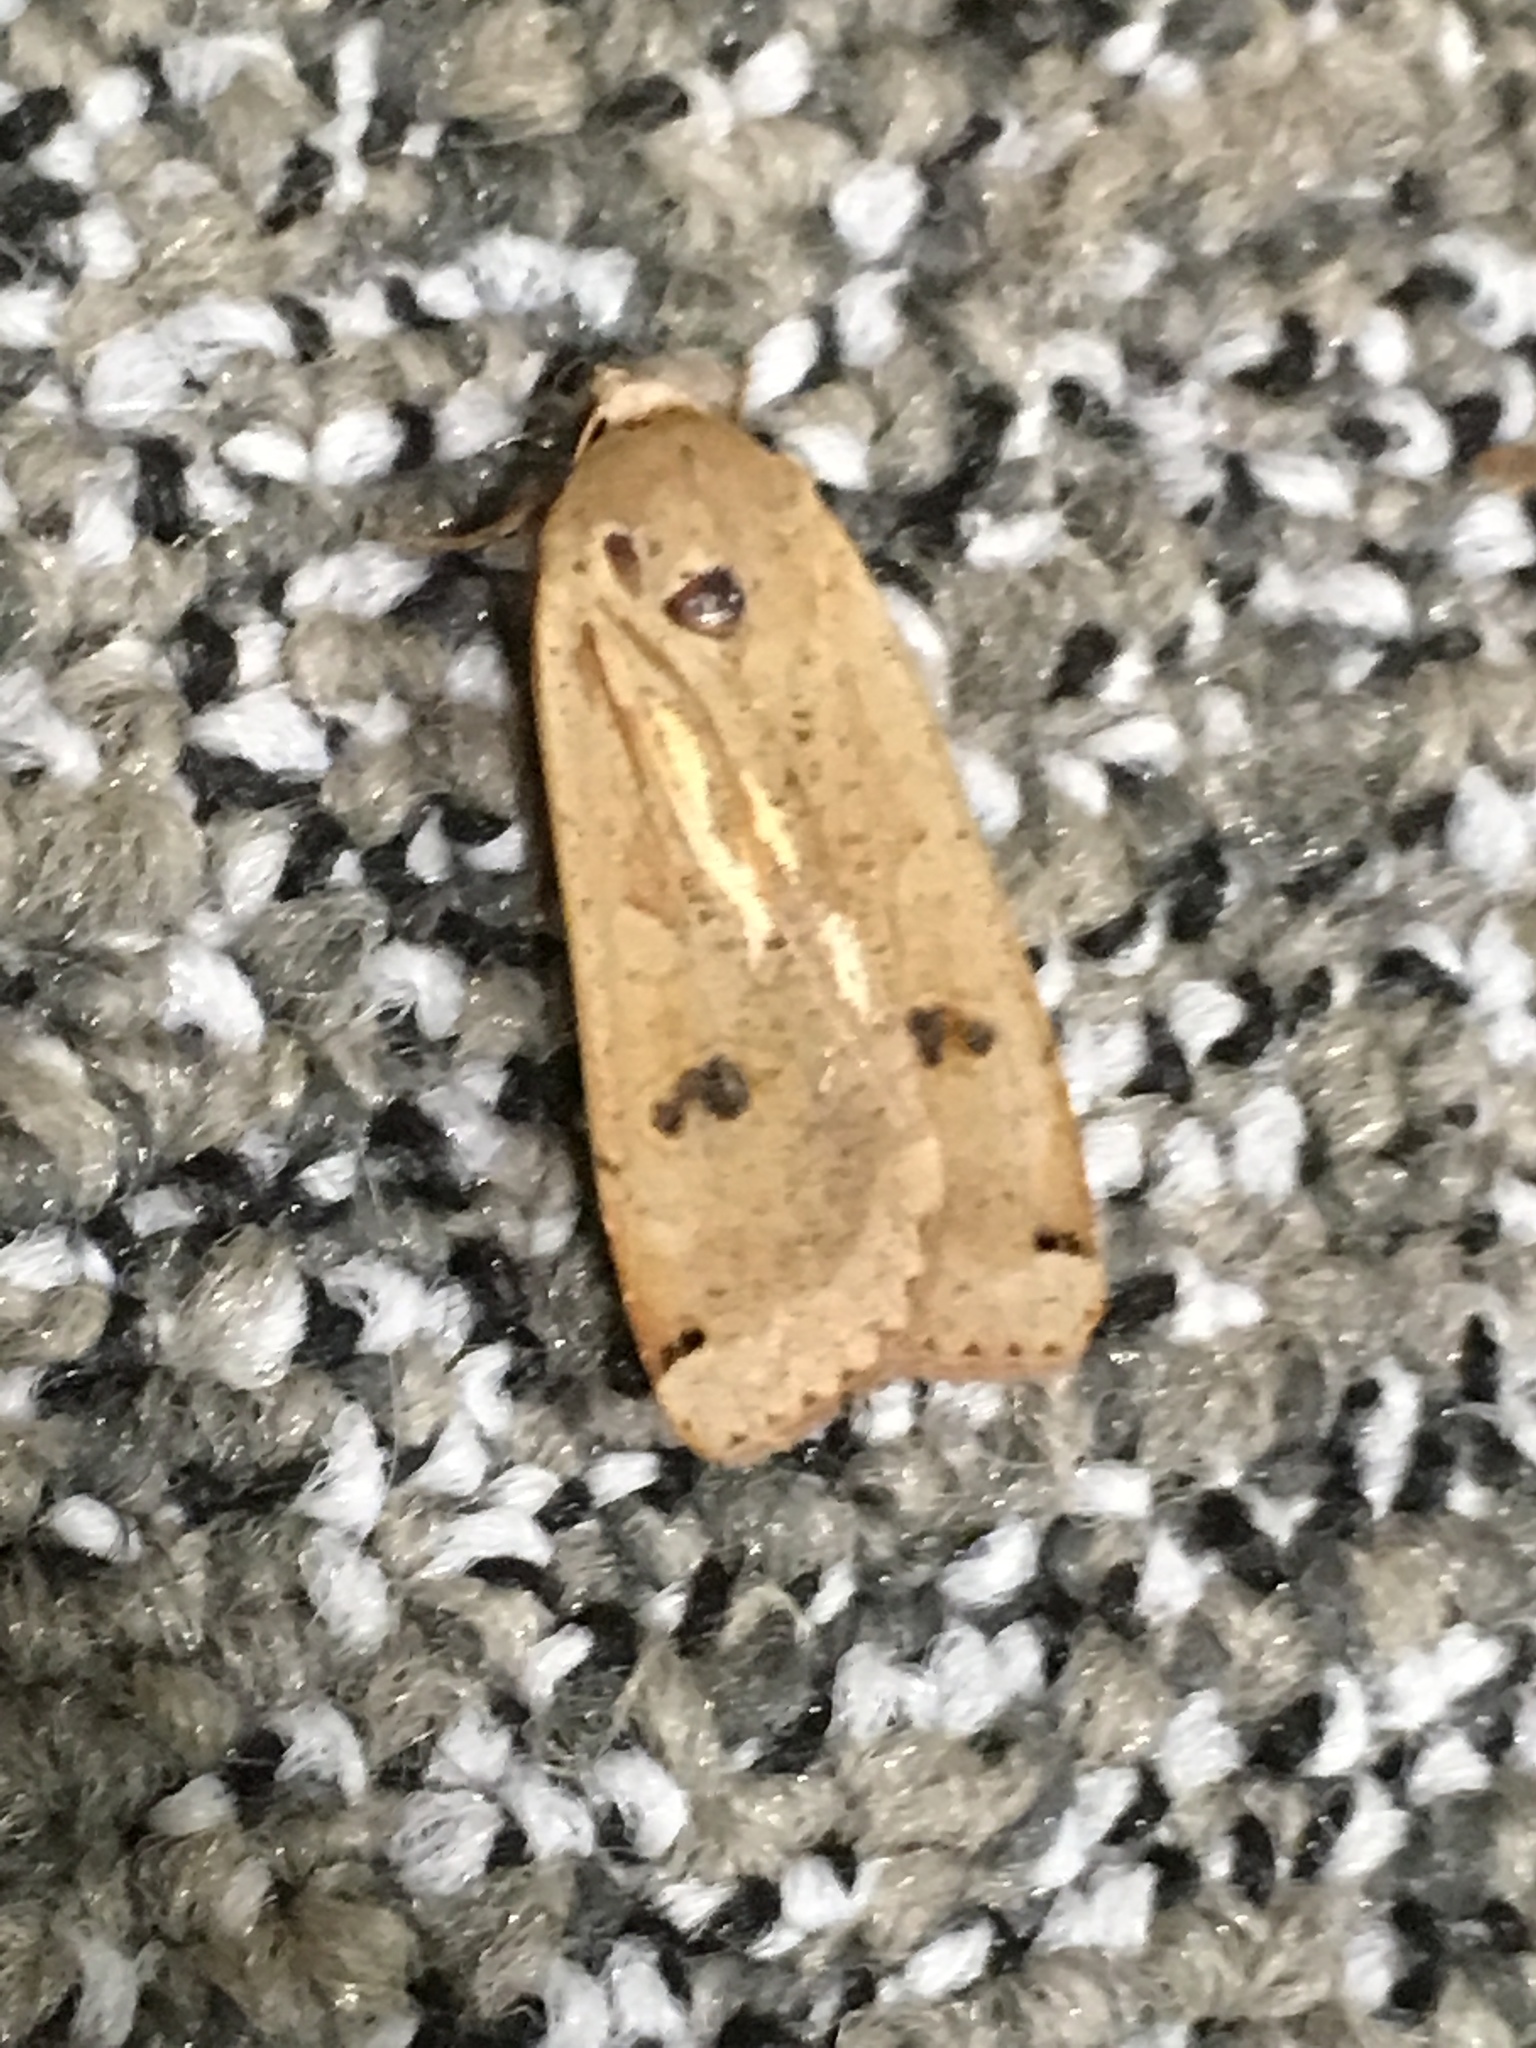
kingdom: Animalia
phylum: Arthropoda
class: Insecta
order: Lepidoptera
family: Noctuidae
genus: Noctua
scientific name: Noctua pronuba
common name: Large yellow underwing
